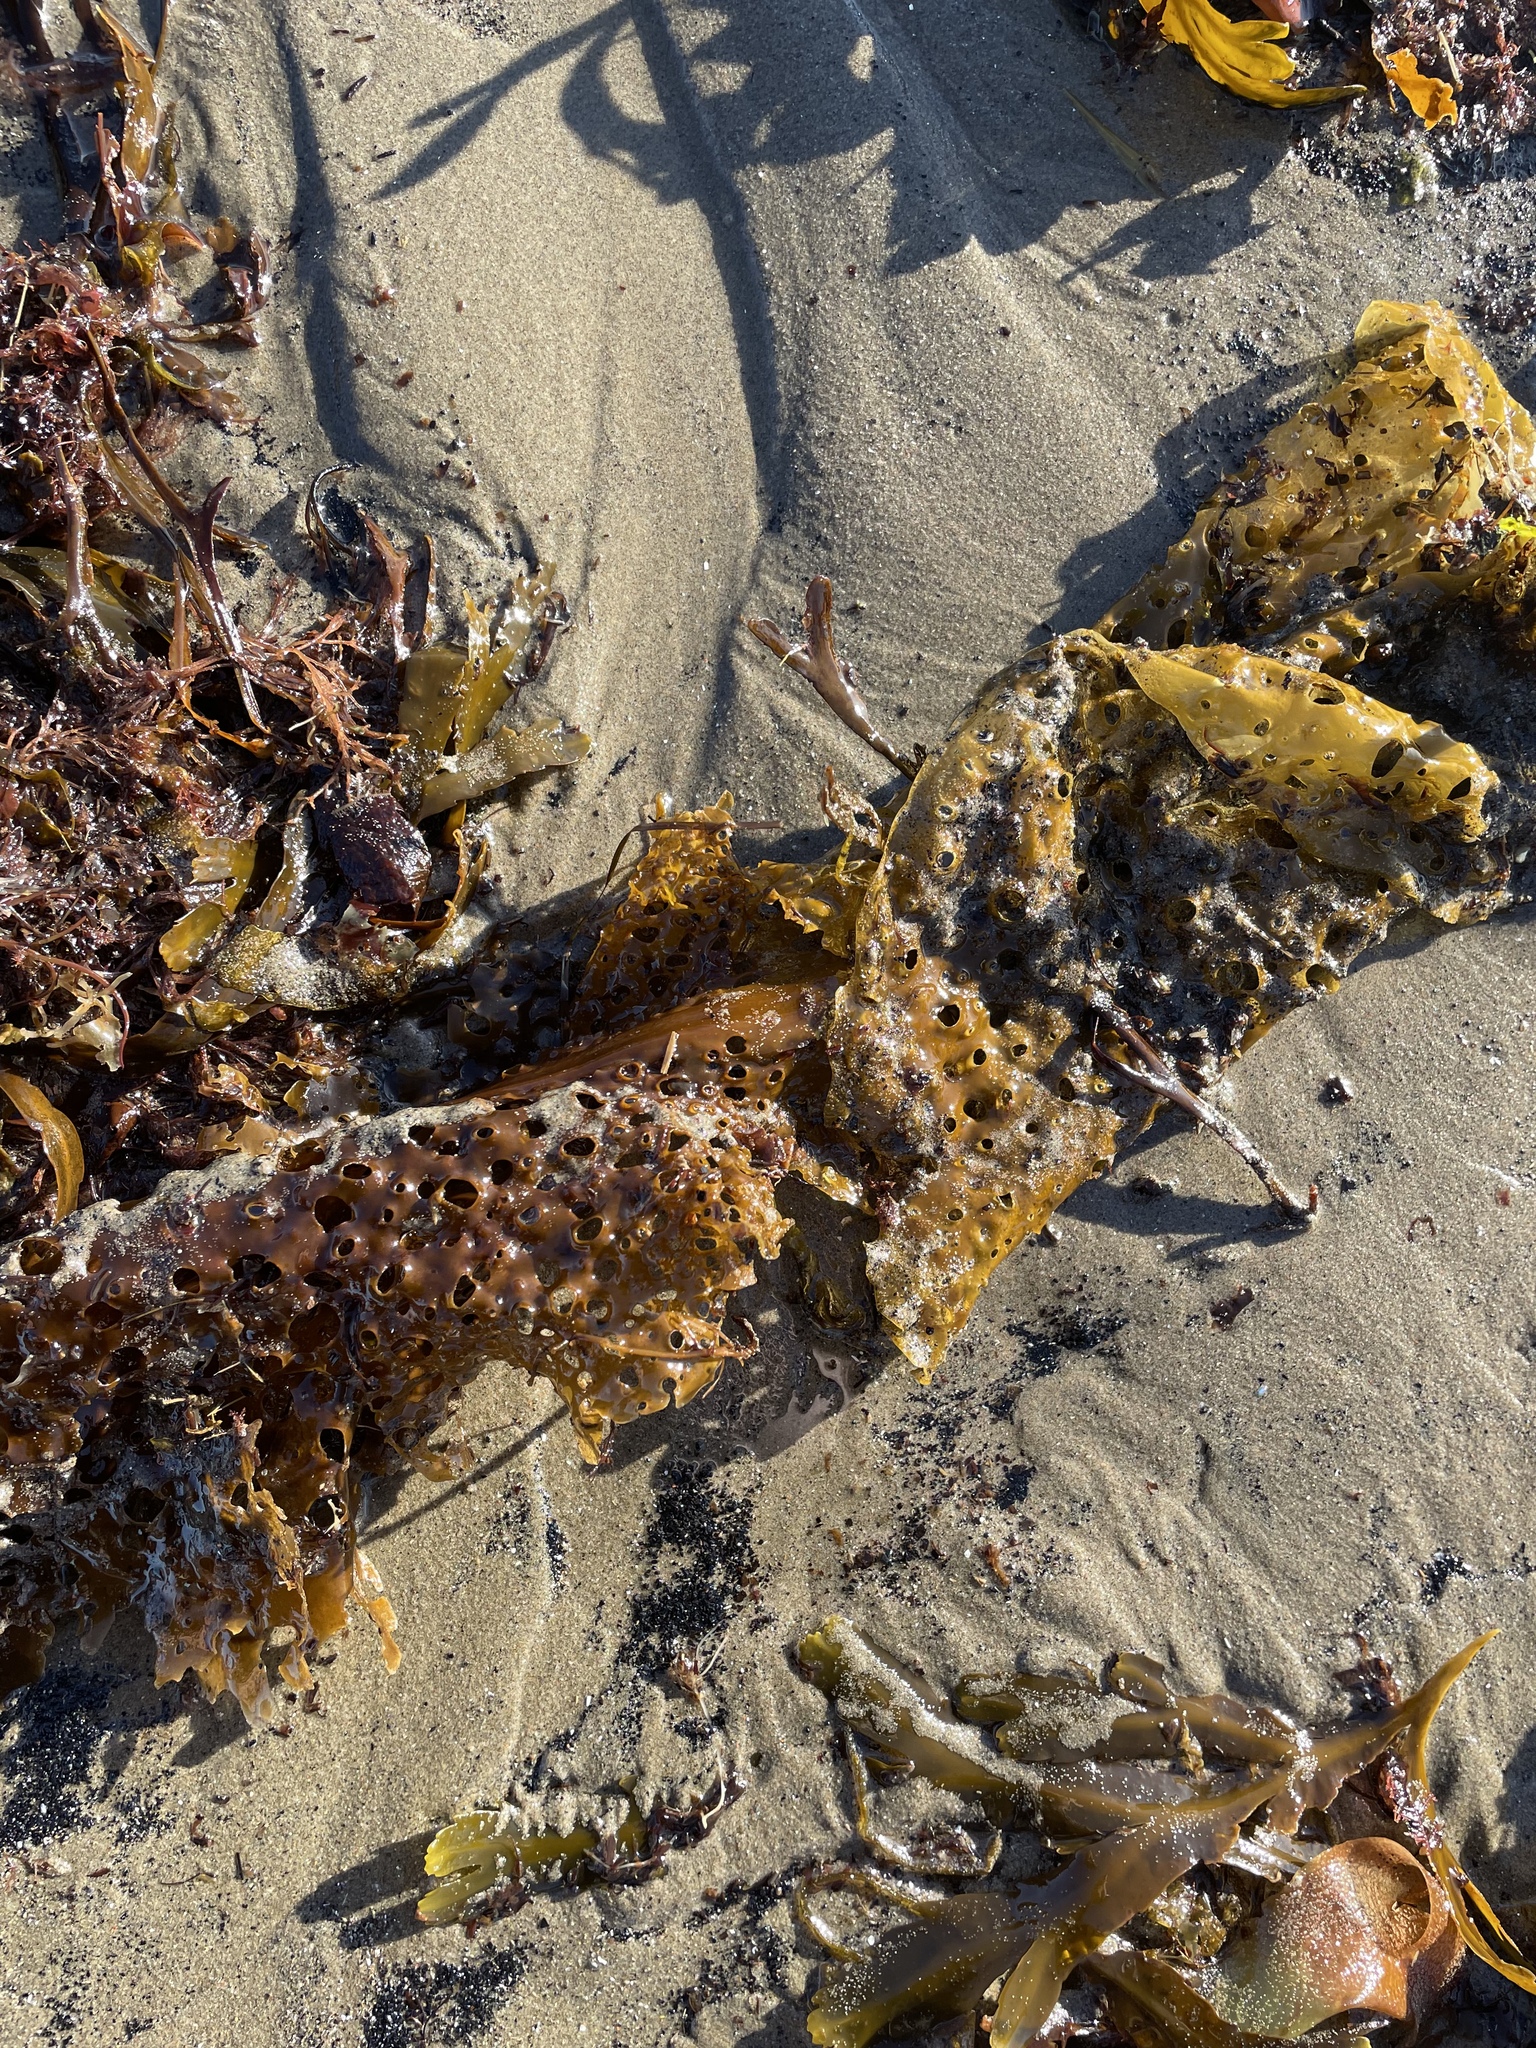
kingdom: Chromista
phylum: Ochrophyta
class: Phaeophyceae
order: Laminariales
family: Costariaceae
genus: Agarum
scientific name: Agarum clathratum
